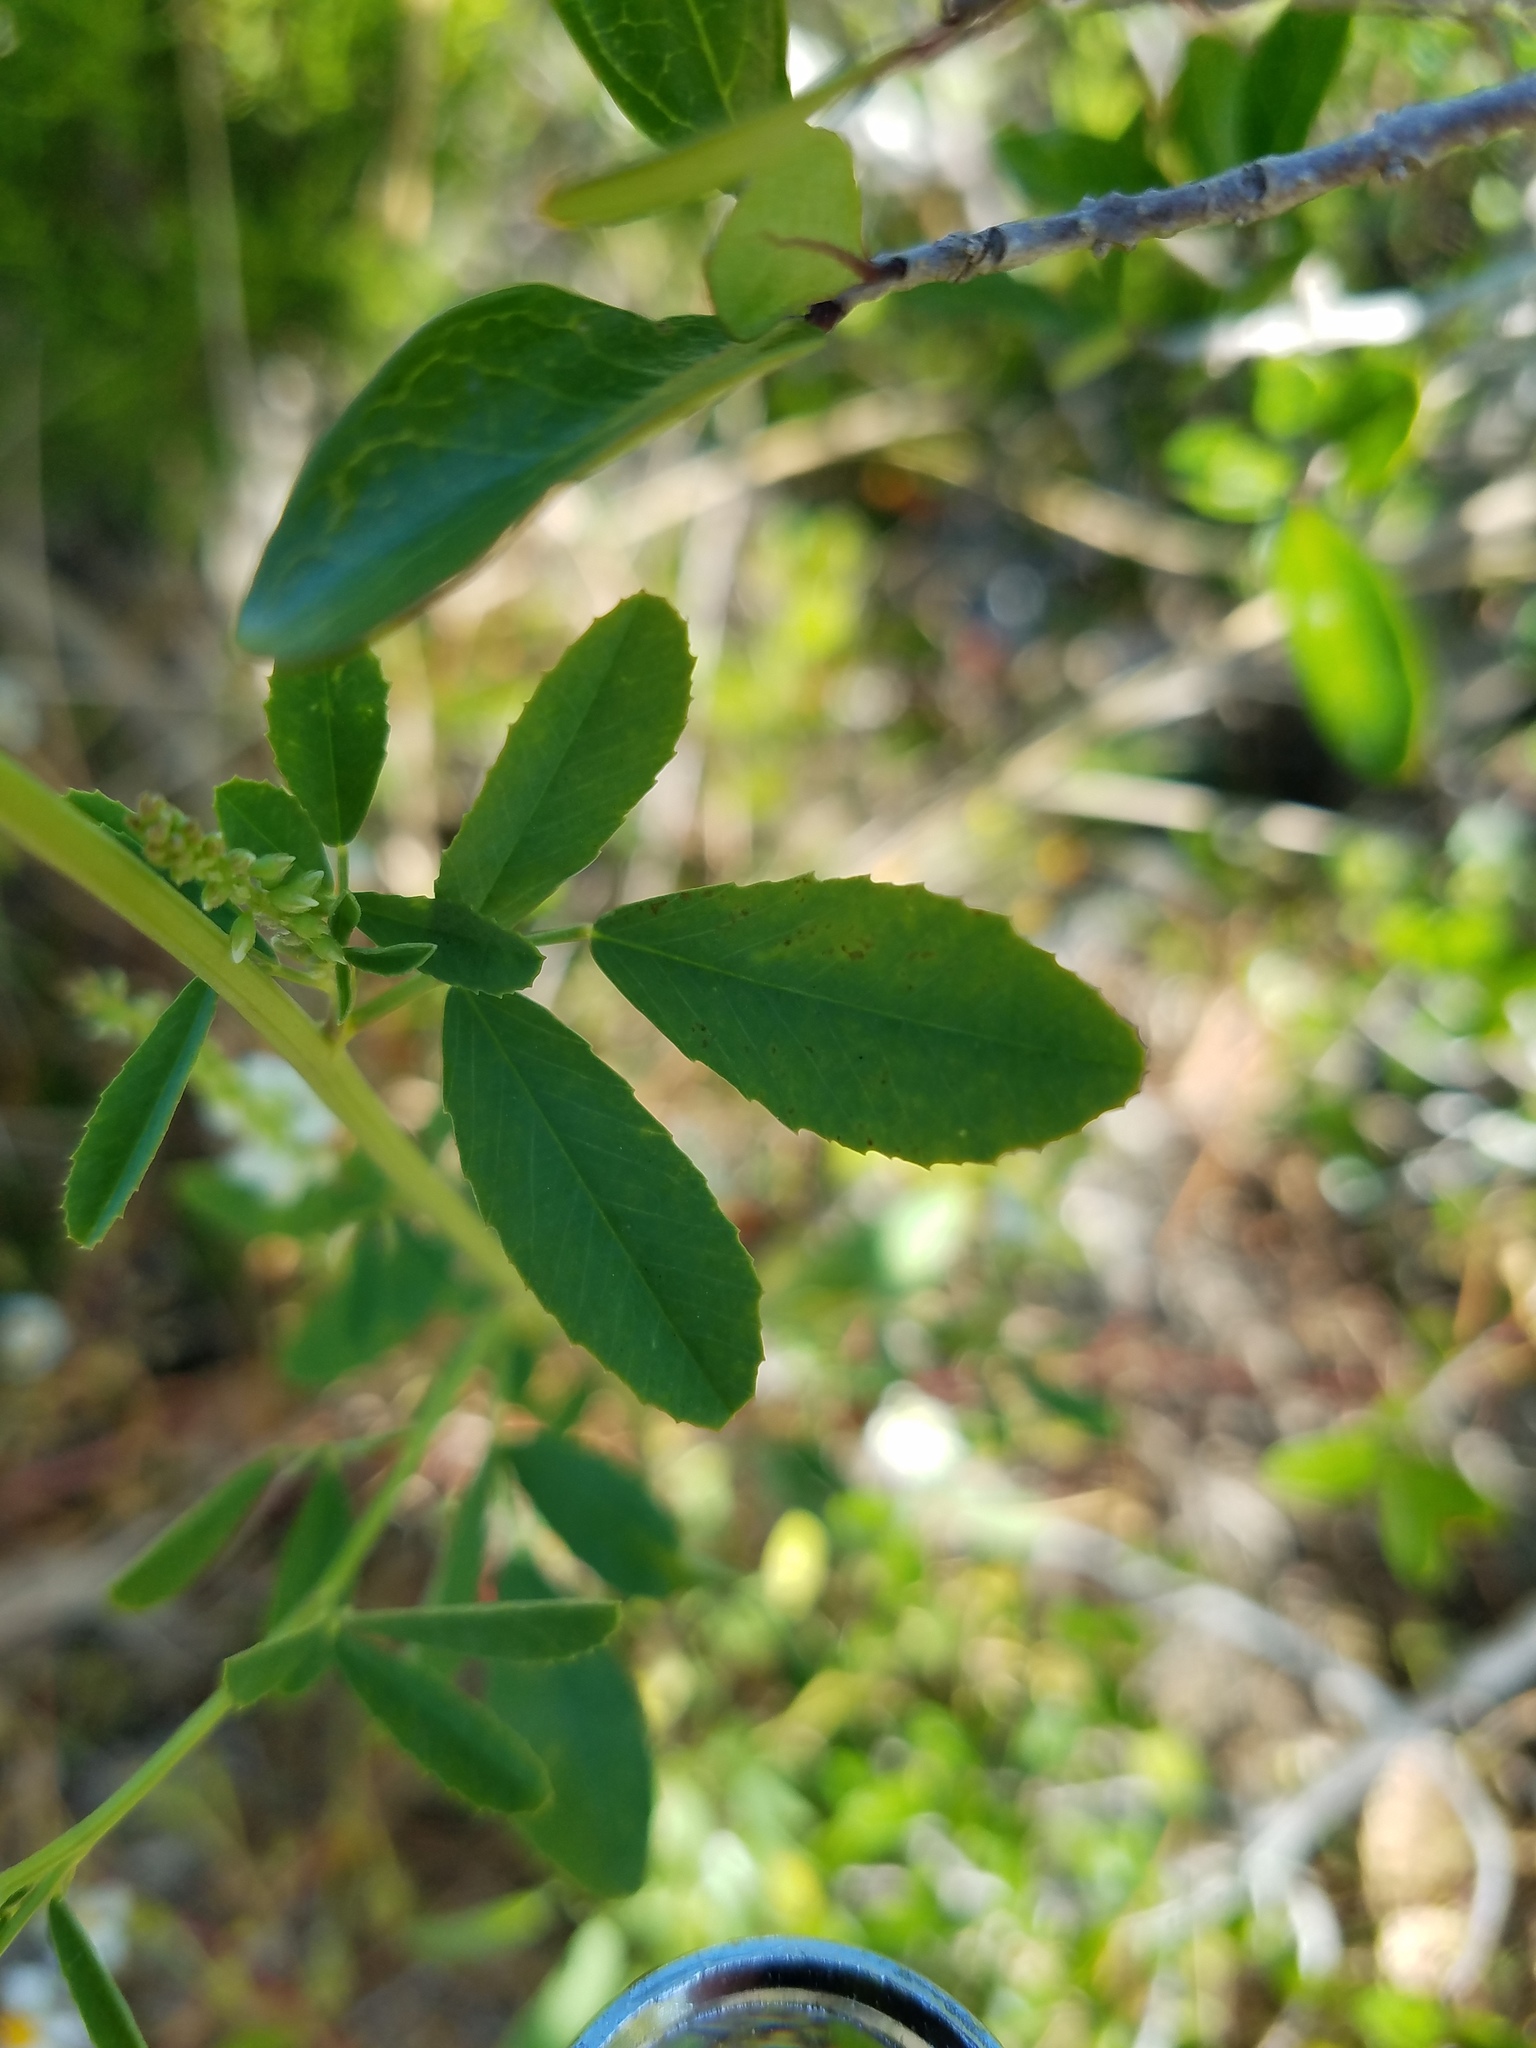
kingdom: Plantae
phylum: Tracheophyta
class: Magnoliopsida
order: Fabales
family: Fabaceae
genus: Melilotus
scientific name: Melilotus albus
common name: White melilot
